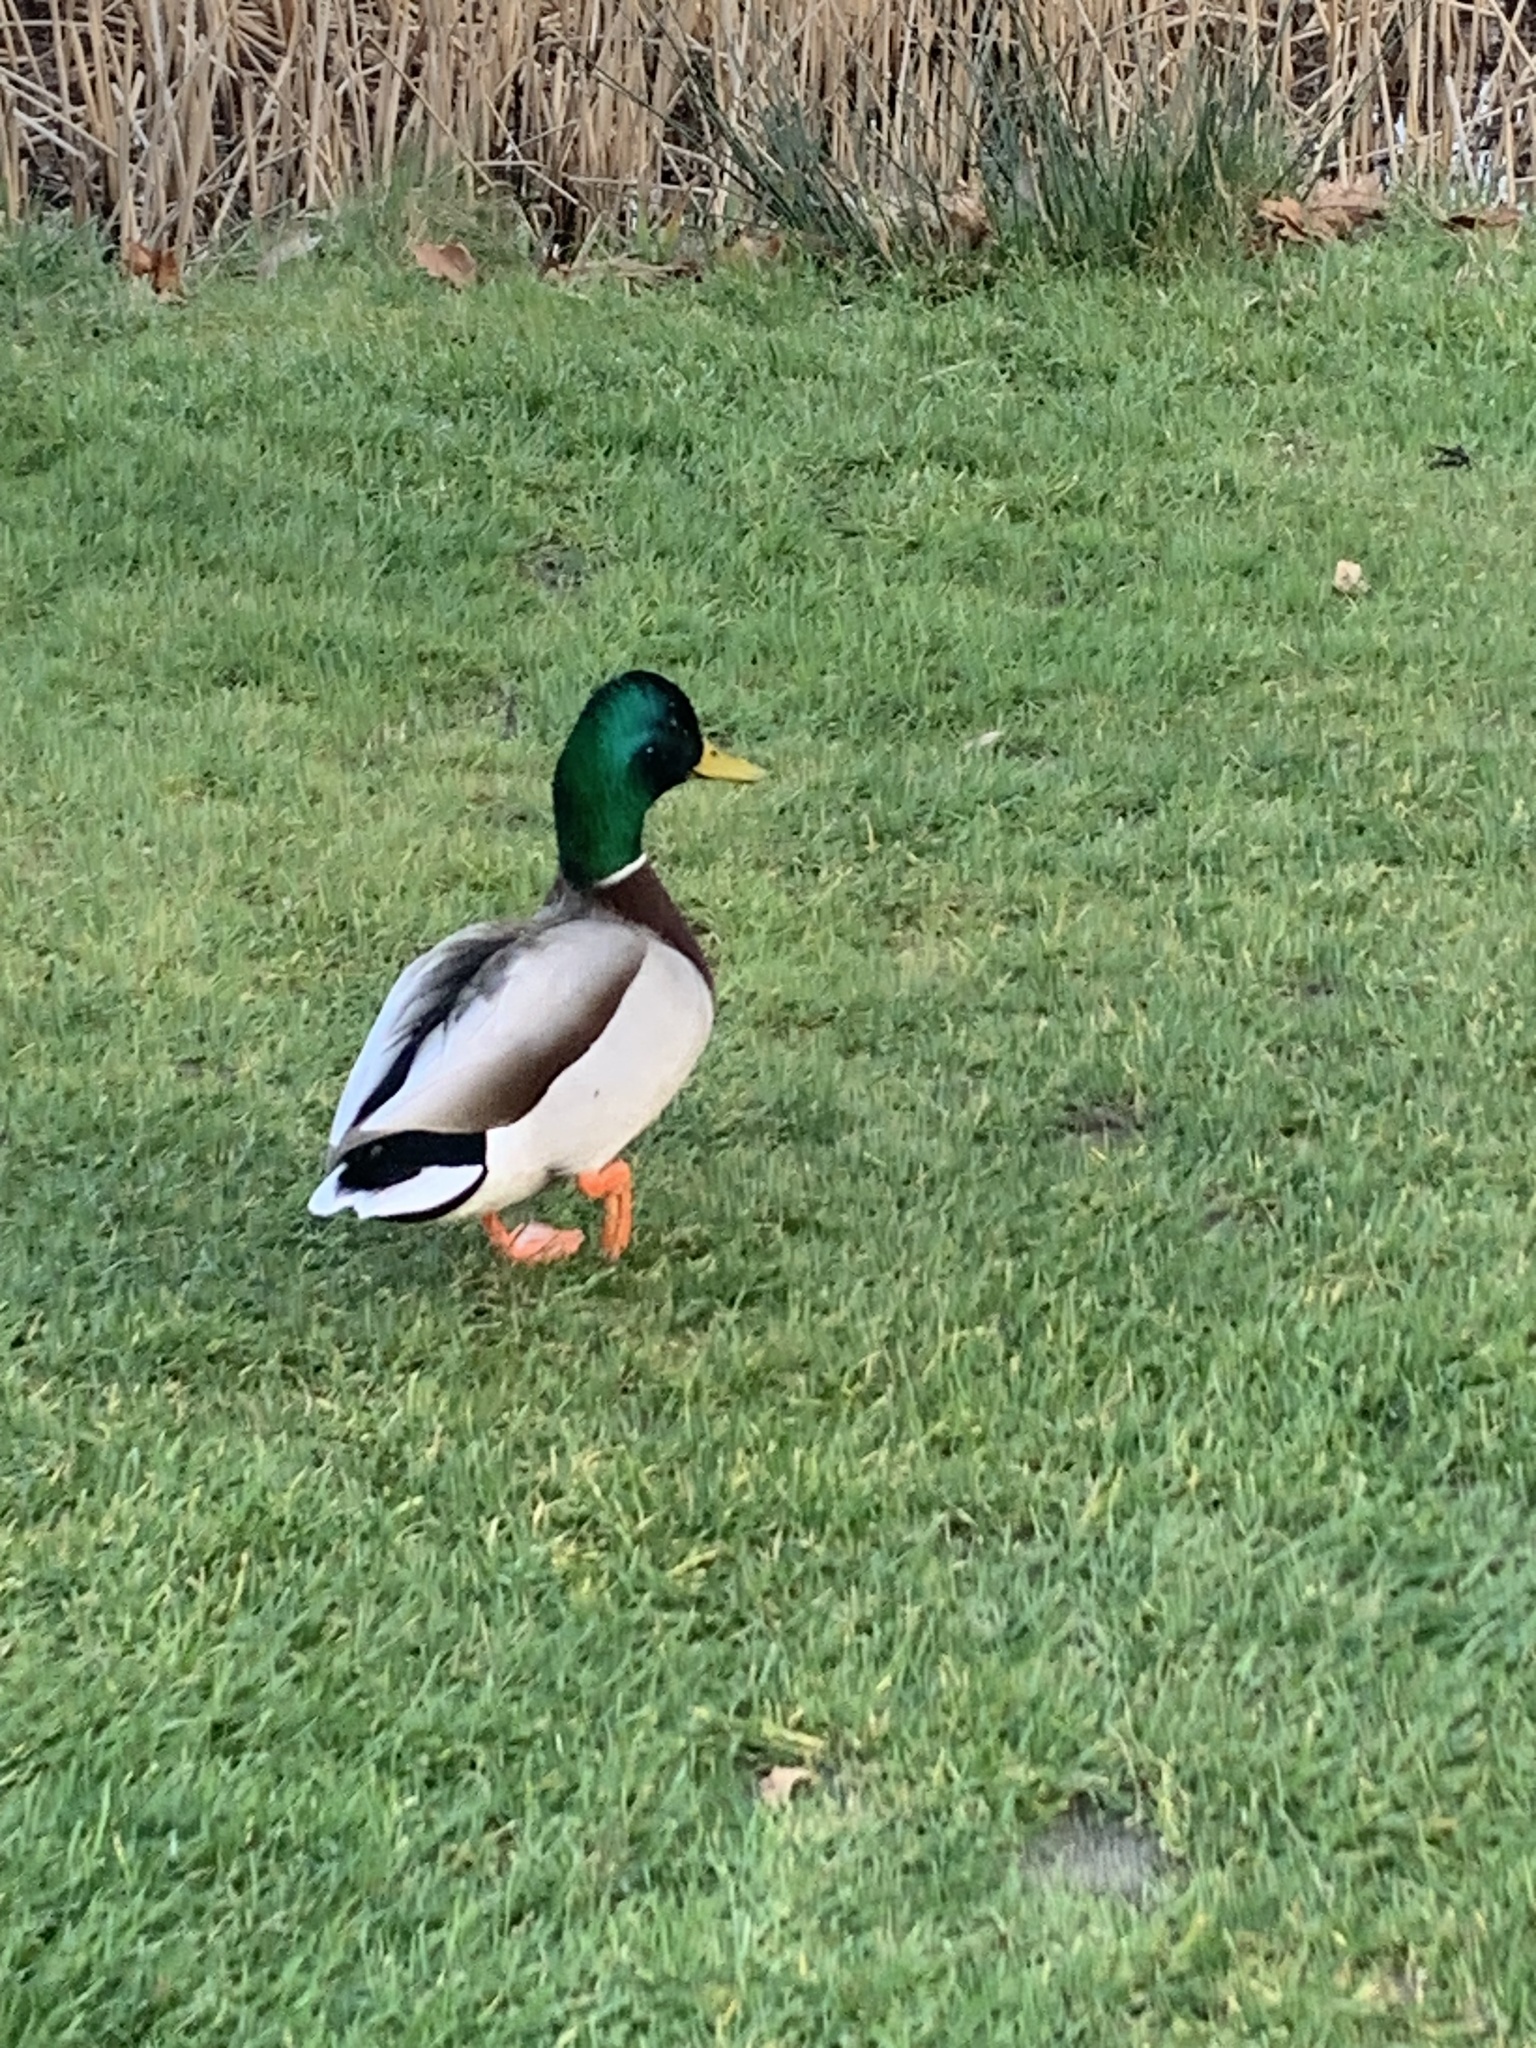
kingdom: Animalia
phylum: Chordata
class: Aves
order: Anseriformes
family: Anatidae
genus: Anas
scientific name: Anas platyrhynchos
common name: Mallard
